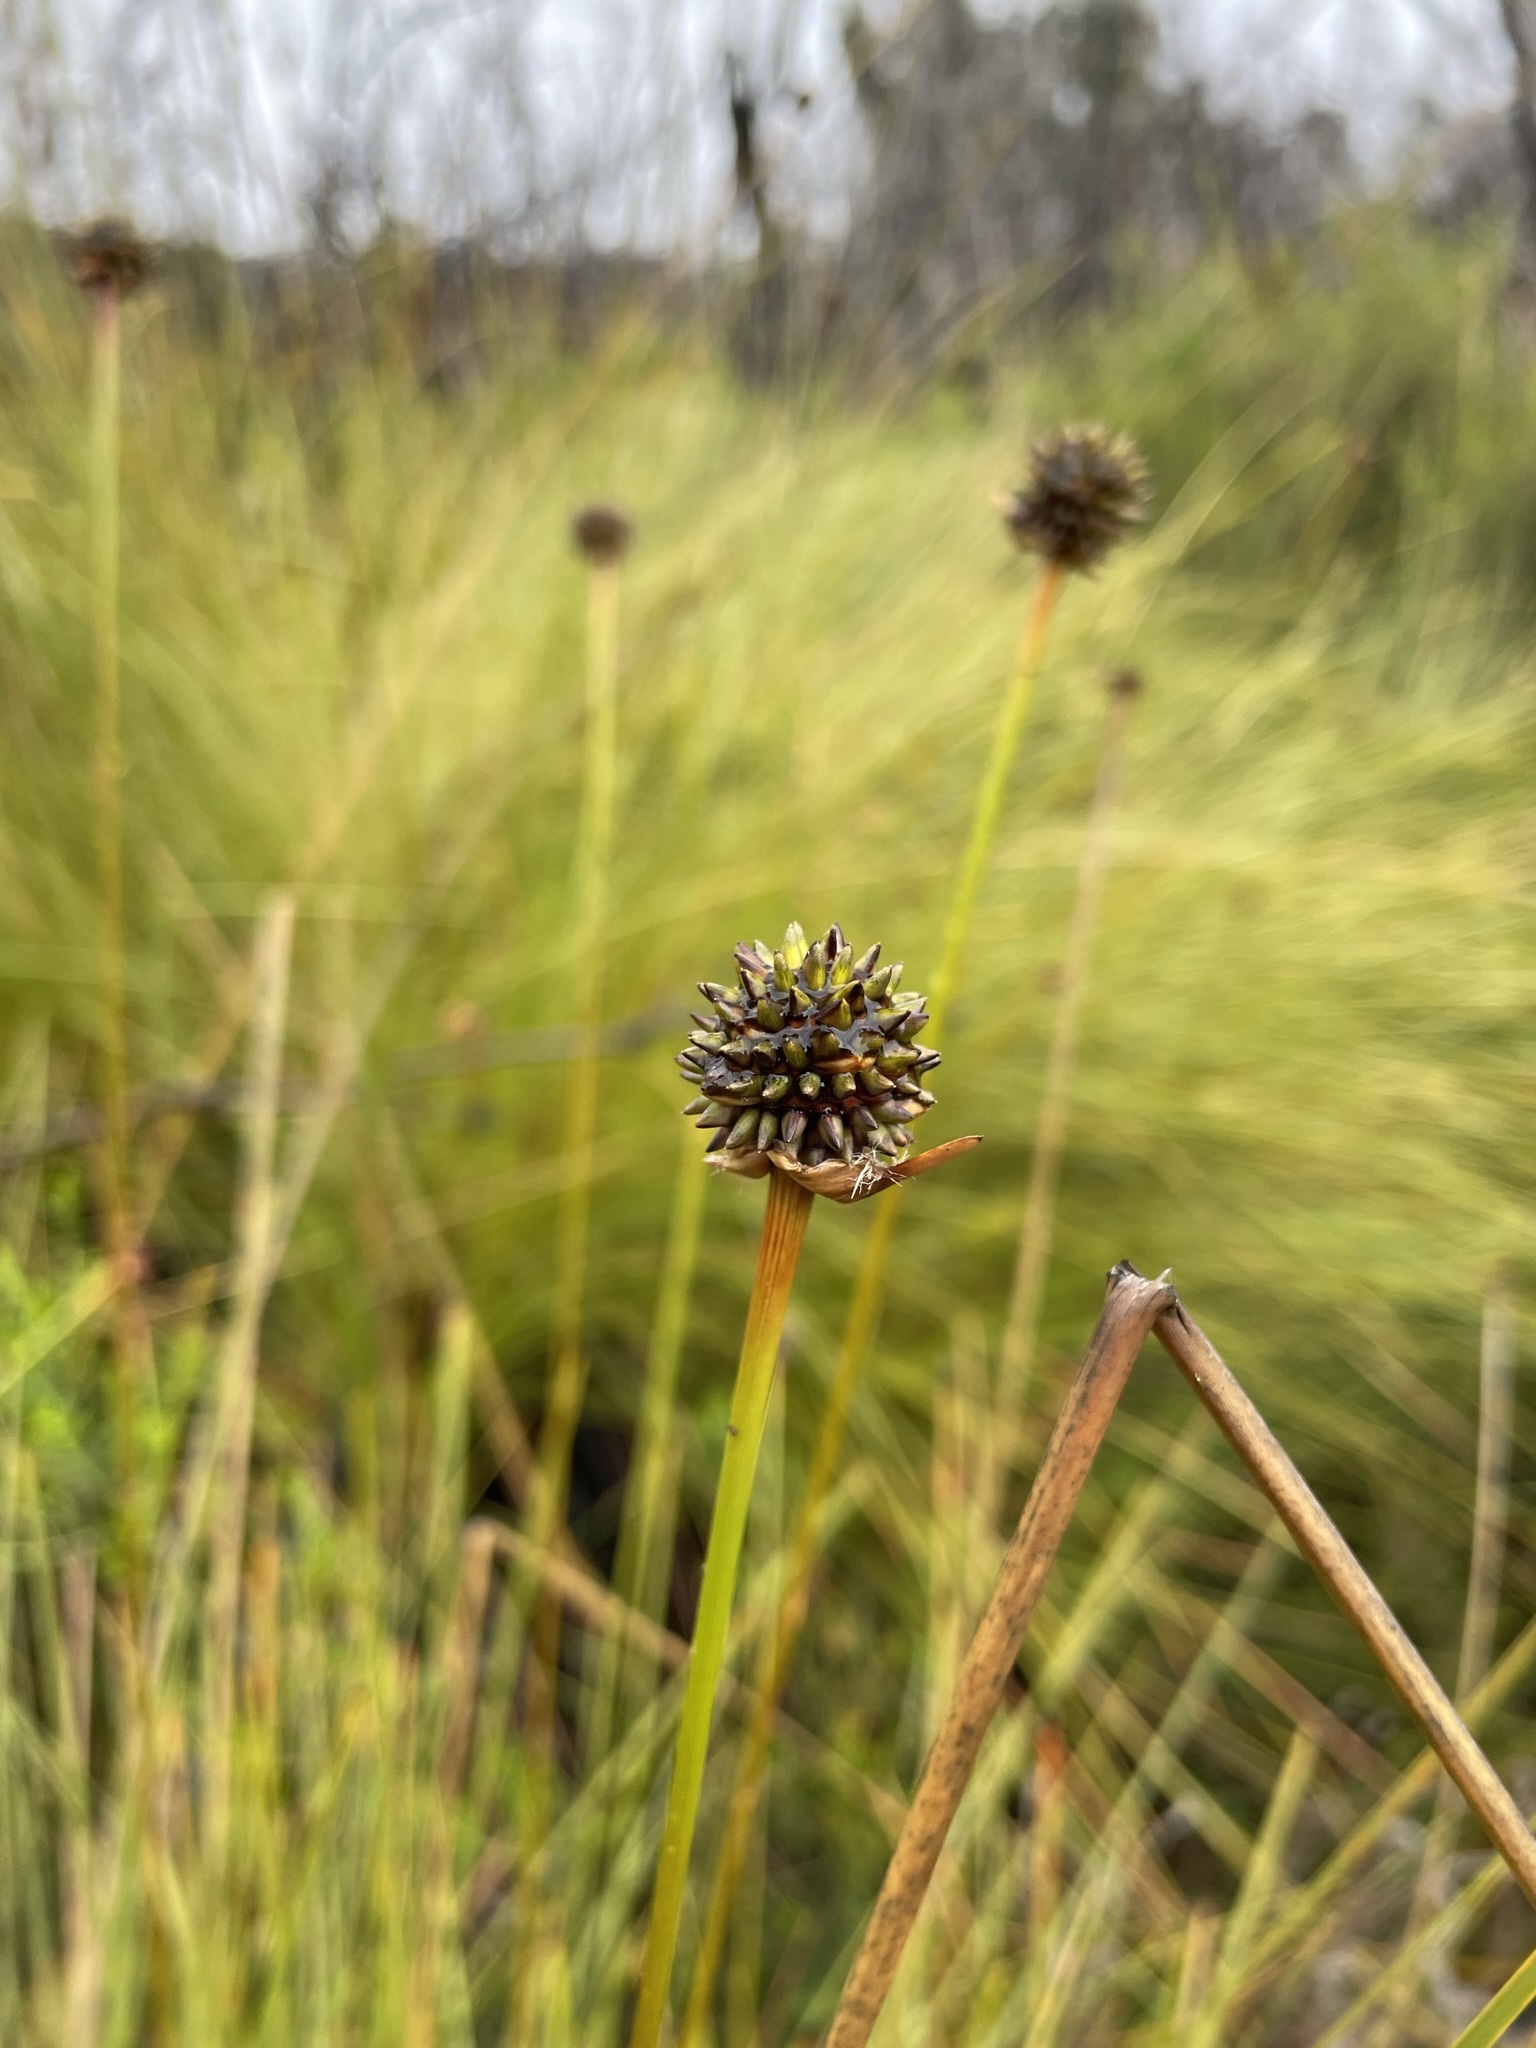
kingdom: Plantae
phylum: Tracheophyta
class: Liliopsida
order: Poales
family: Cyperaceae
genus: Gymnoschoenus
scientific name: Gymnoschoenus sphaerocephalus
